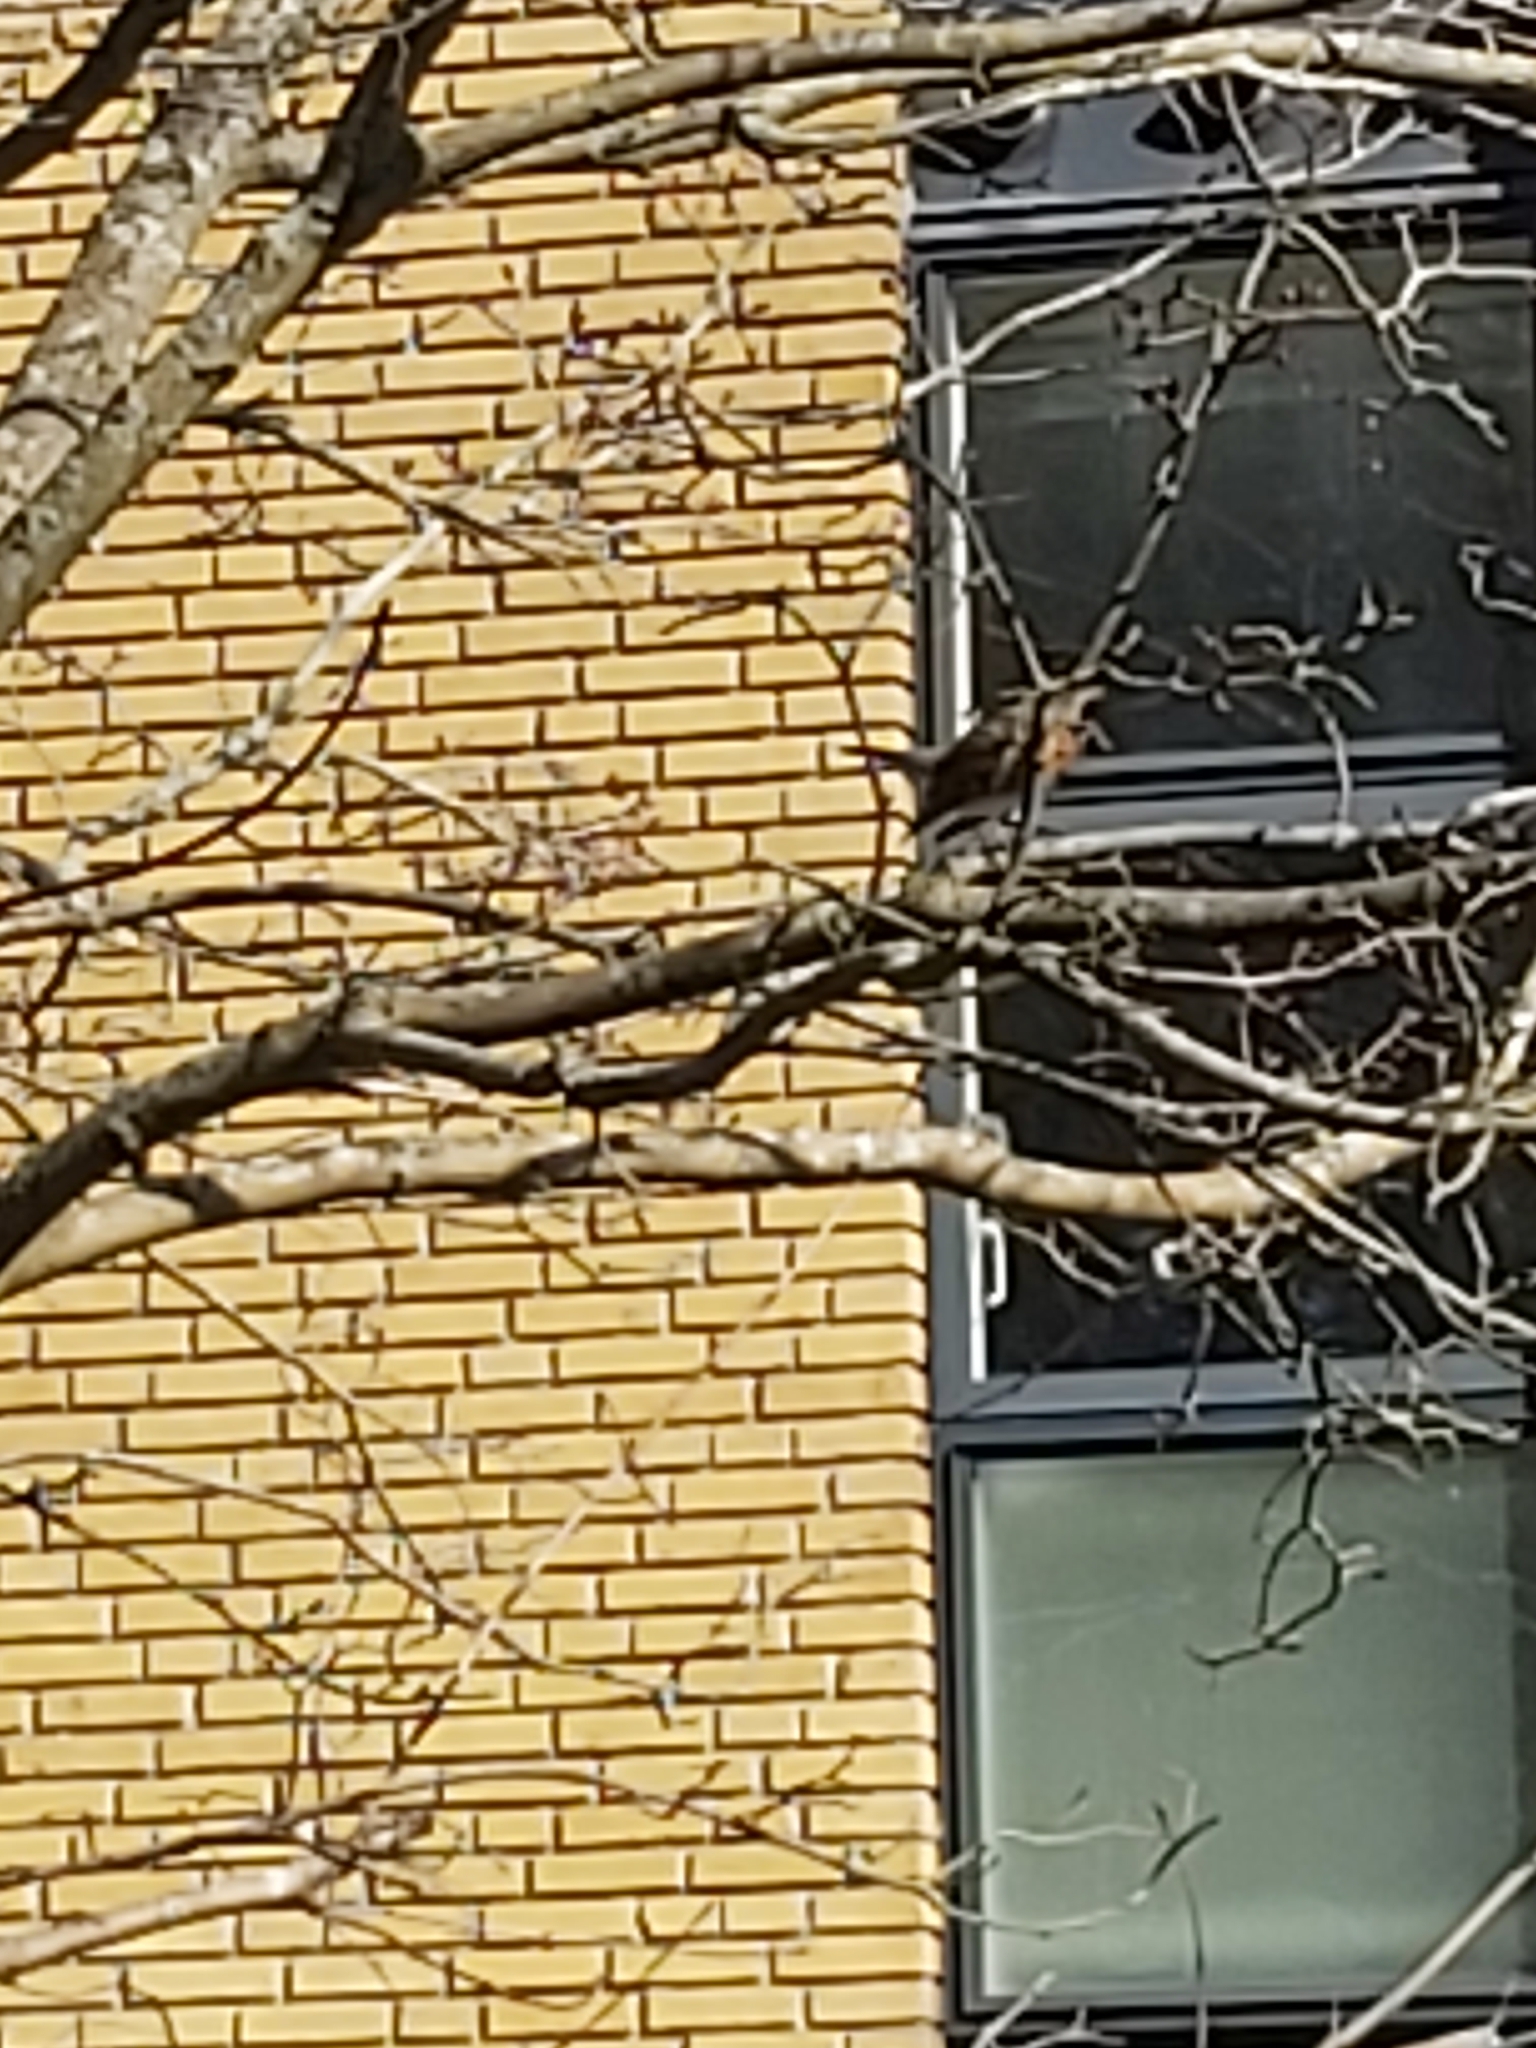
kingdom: Animalia
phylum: Chordata
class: Aves
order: Passeriformes
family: Turdidae
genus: Turdus
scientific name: Turdus pilaris
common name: Fieldfare
